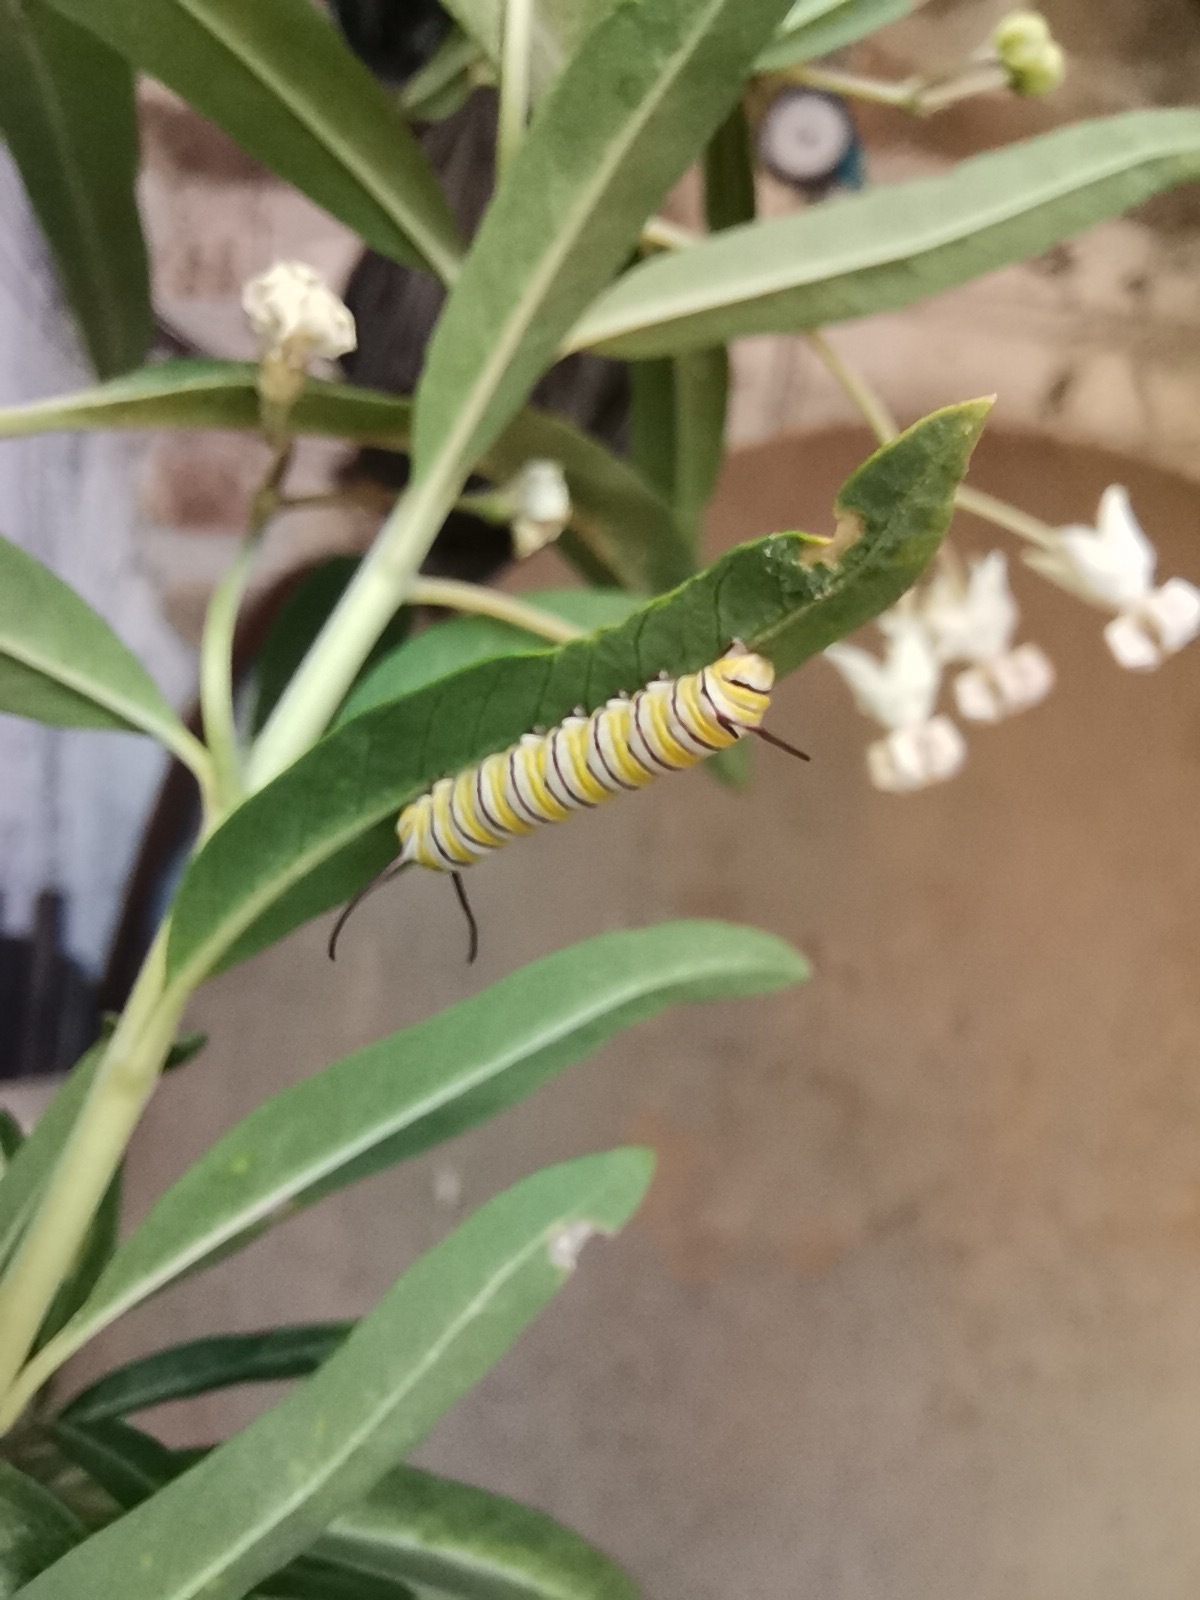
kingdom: Animalia
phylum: Arthropoda
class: Insecta
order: Lepidoptera
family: Nymphalidae
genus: Danaus
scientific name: Danaus plexippus
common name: Monarch
